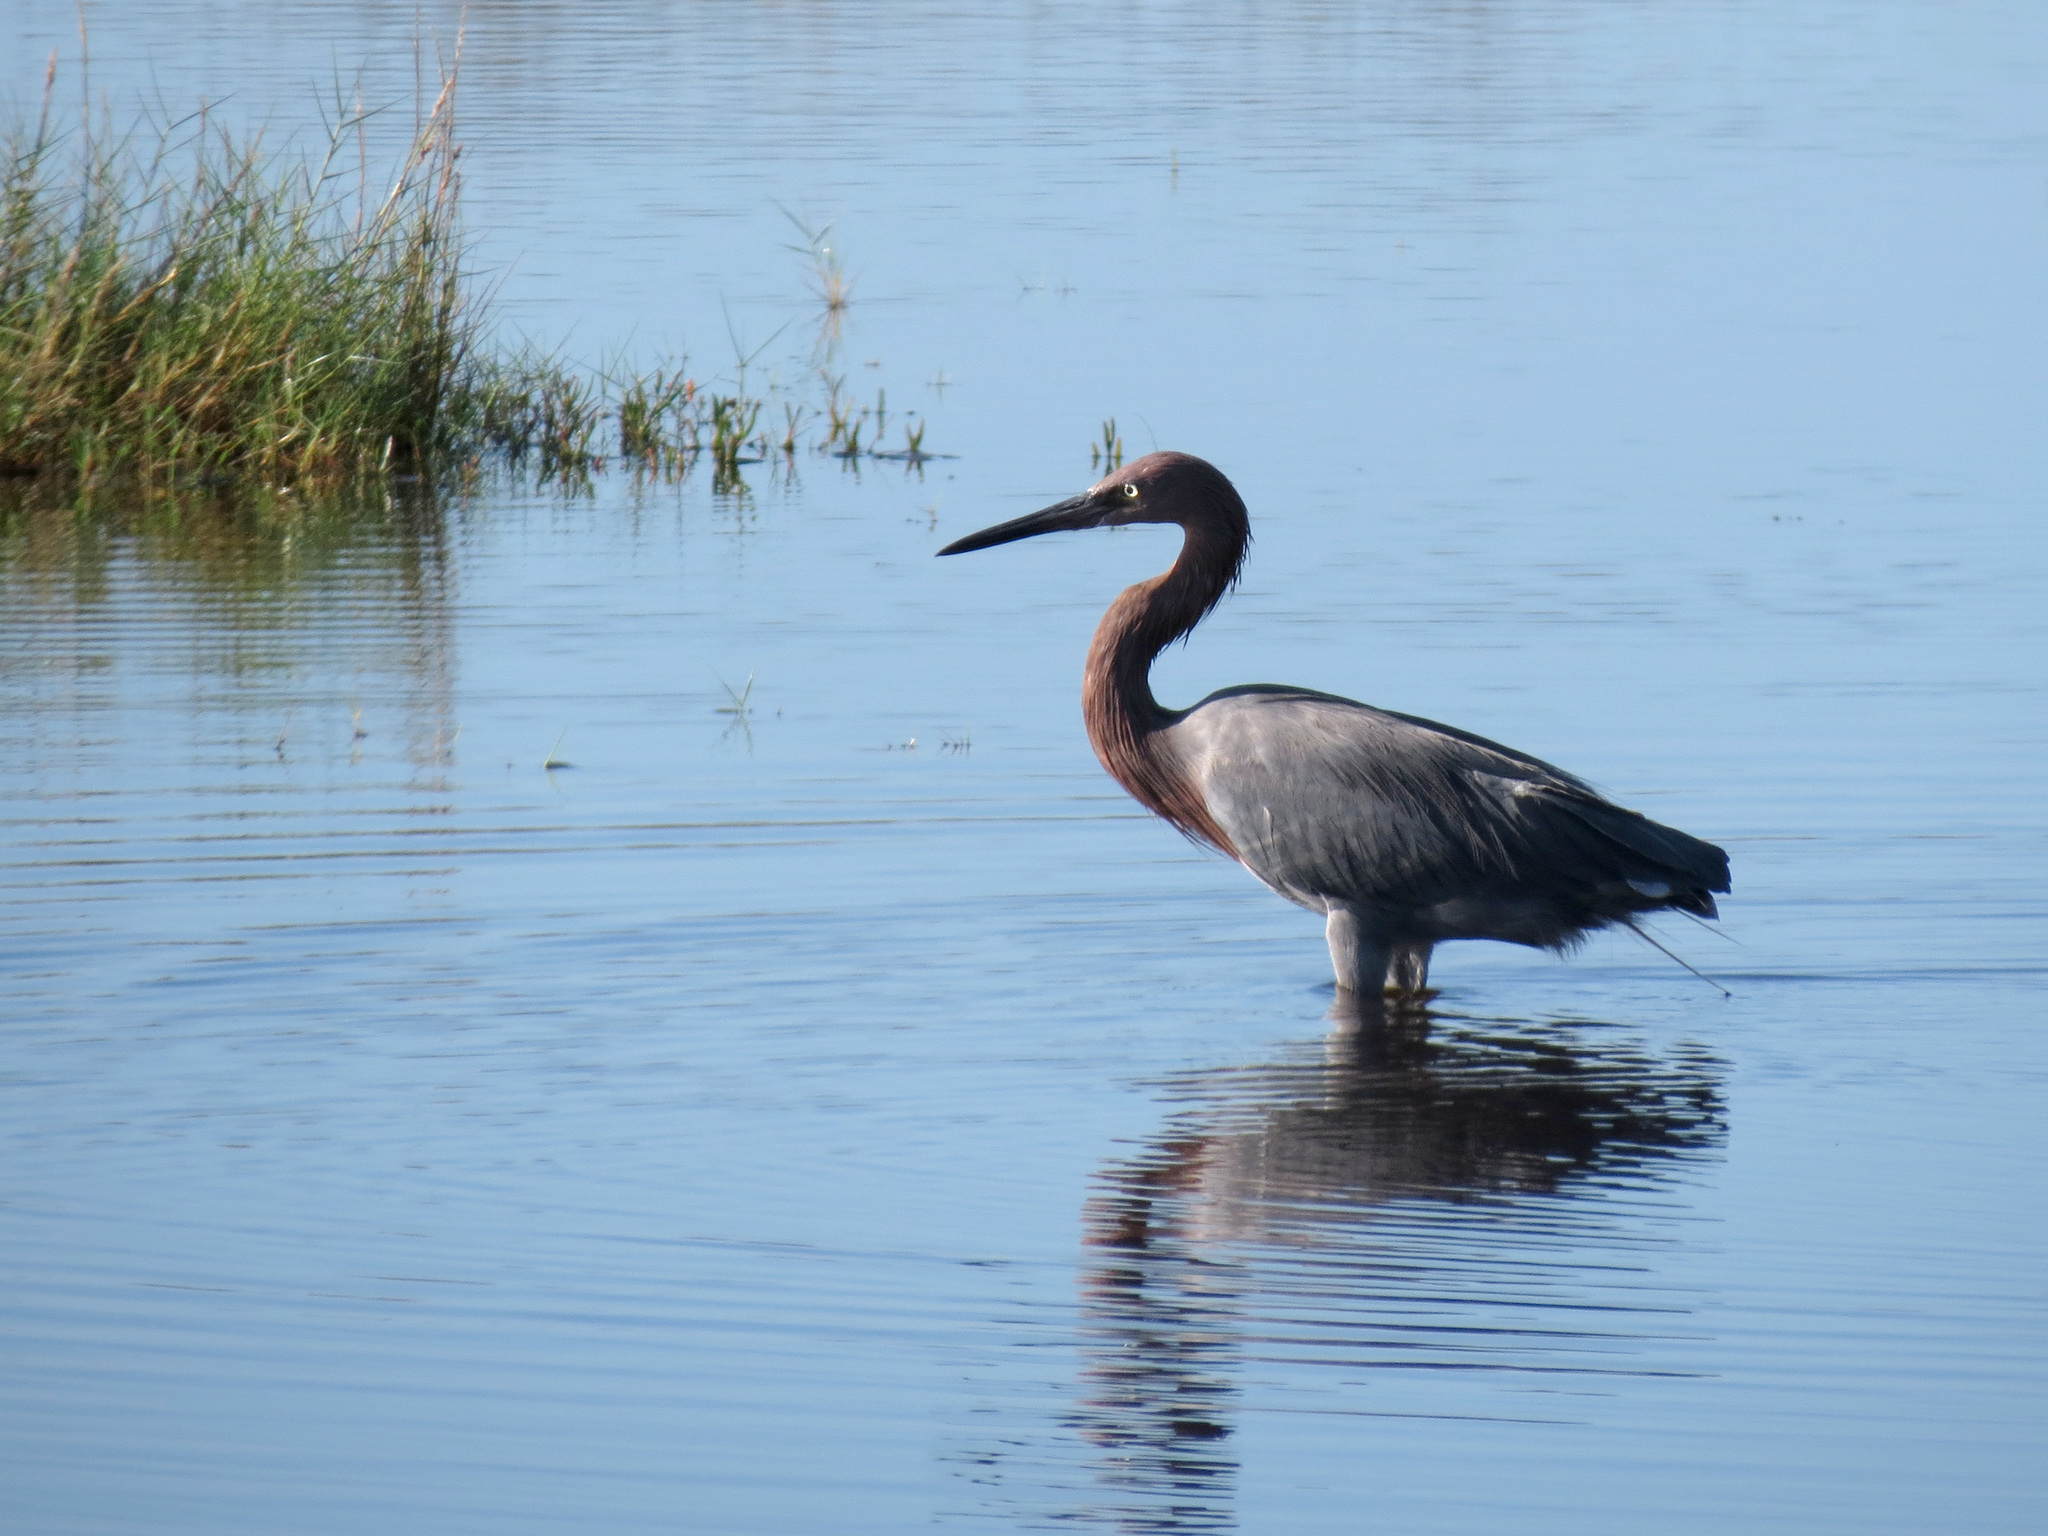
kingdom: Animalia
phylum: Chordata
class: Aves
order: Pelecaniformes
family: Ardeidae
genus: Egretta
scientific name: Egretta rufescens
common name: Reddish egret
